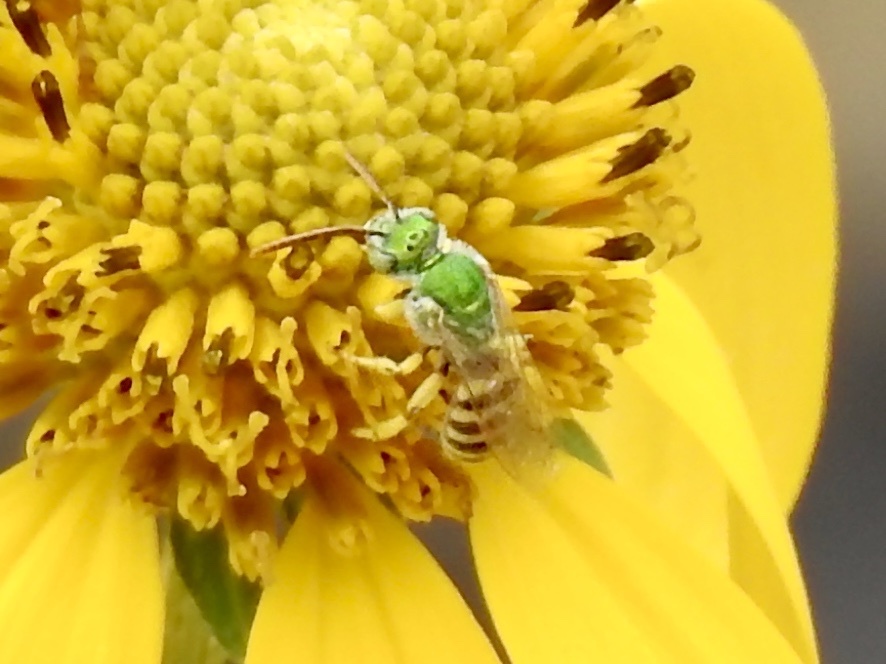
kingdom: Animalia
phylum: Arthropoda
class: Insecta
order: Hymenoptera
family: Halictidae
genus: Agapostemon
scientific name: Agapostemon melliventris
